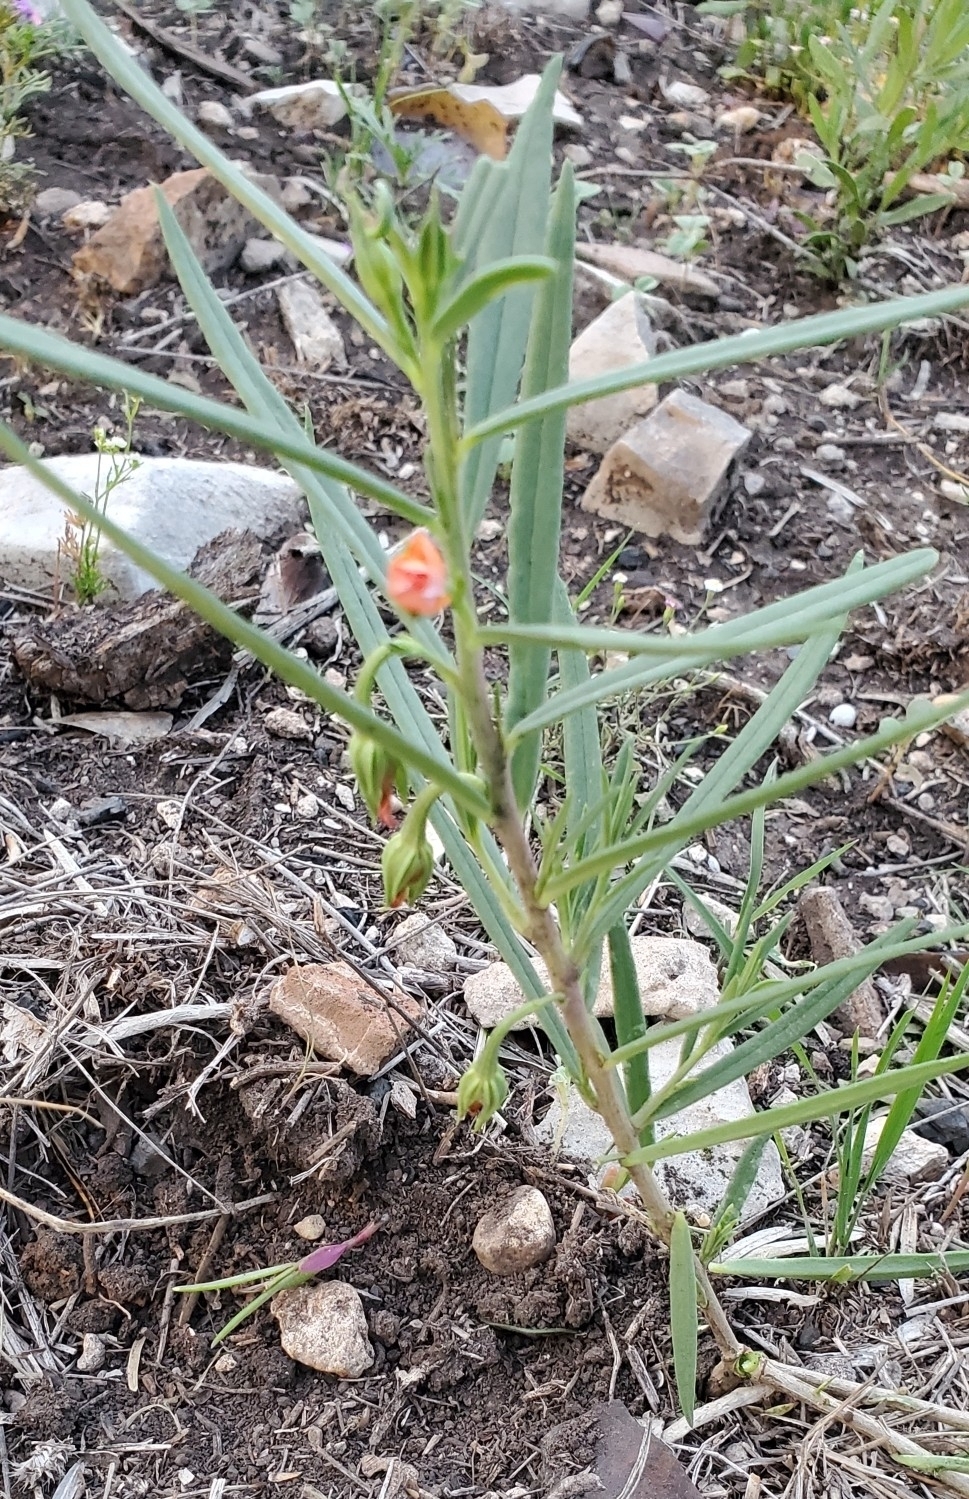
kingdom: Plantae
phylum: Tracheophyta
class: Magnoliopsida
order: Caryophyllales
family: Montiaceae
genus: Phemeranthus
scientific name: Phemeranthus aurantiacus
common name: Orange fameflower
